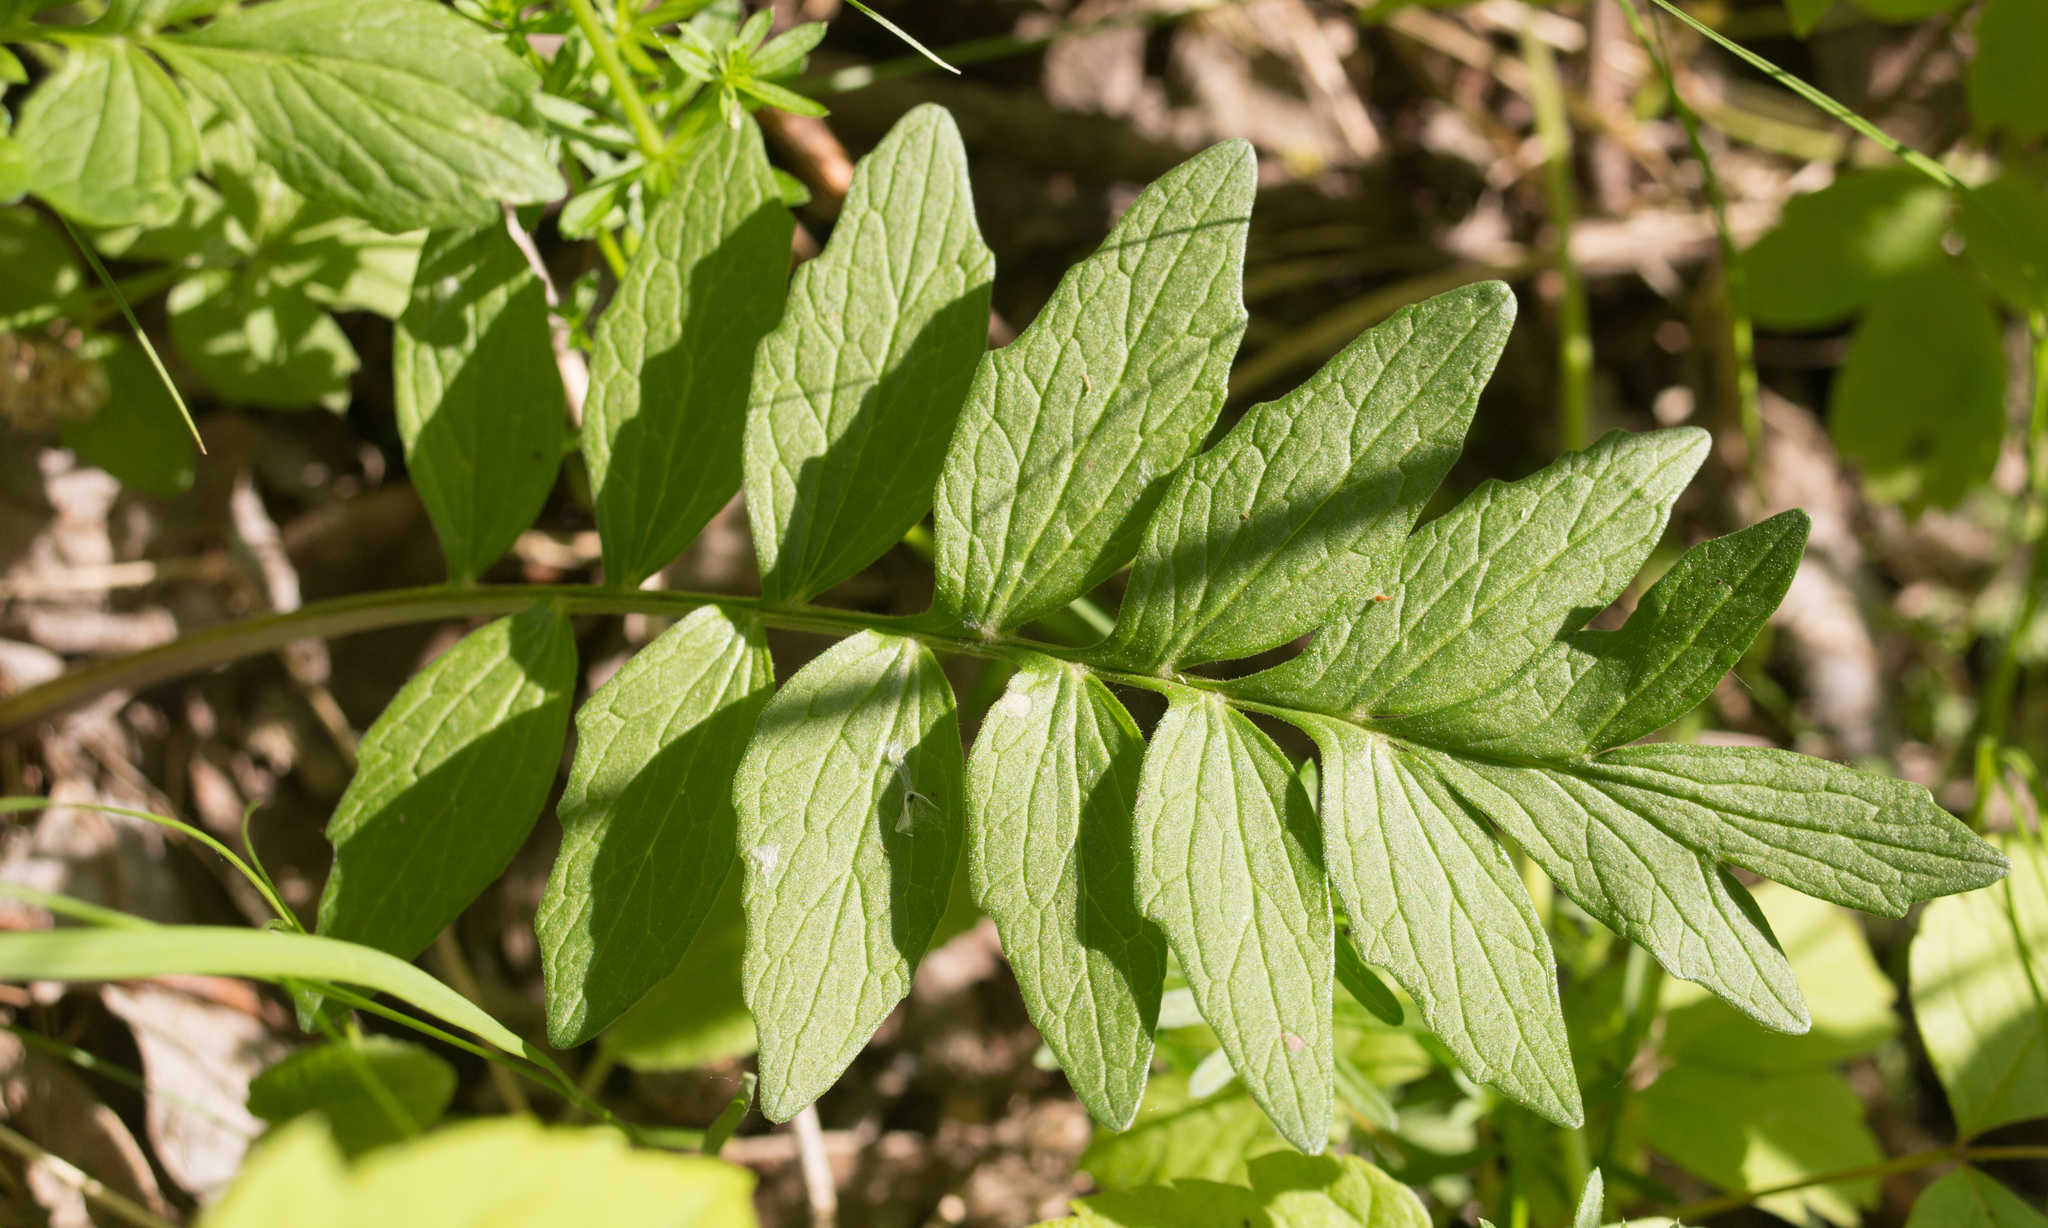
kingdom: Plantae
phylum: Tracheophyta
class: Magnoliopsida
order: Dipsacales
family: Caprifoliaceae
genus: Valeriana
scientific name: Valeriana officinalis
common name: Common valerian
